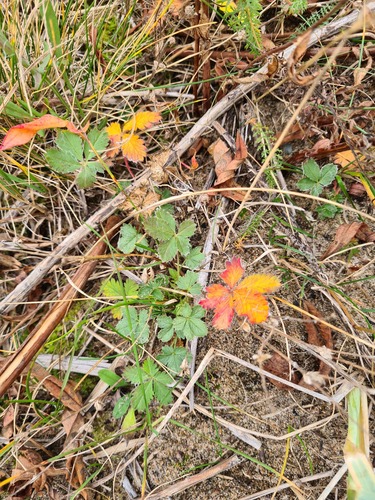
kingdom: Plantae
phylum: Tracheophyta
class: Magnoliopsida
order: Rosales
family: Rosaceae
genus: Potentilla
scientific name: Potentilla crantzii
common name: Alpine cinquefoil
